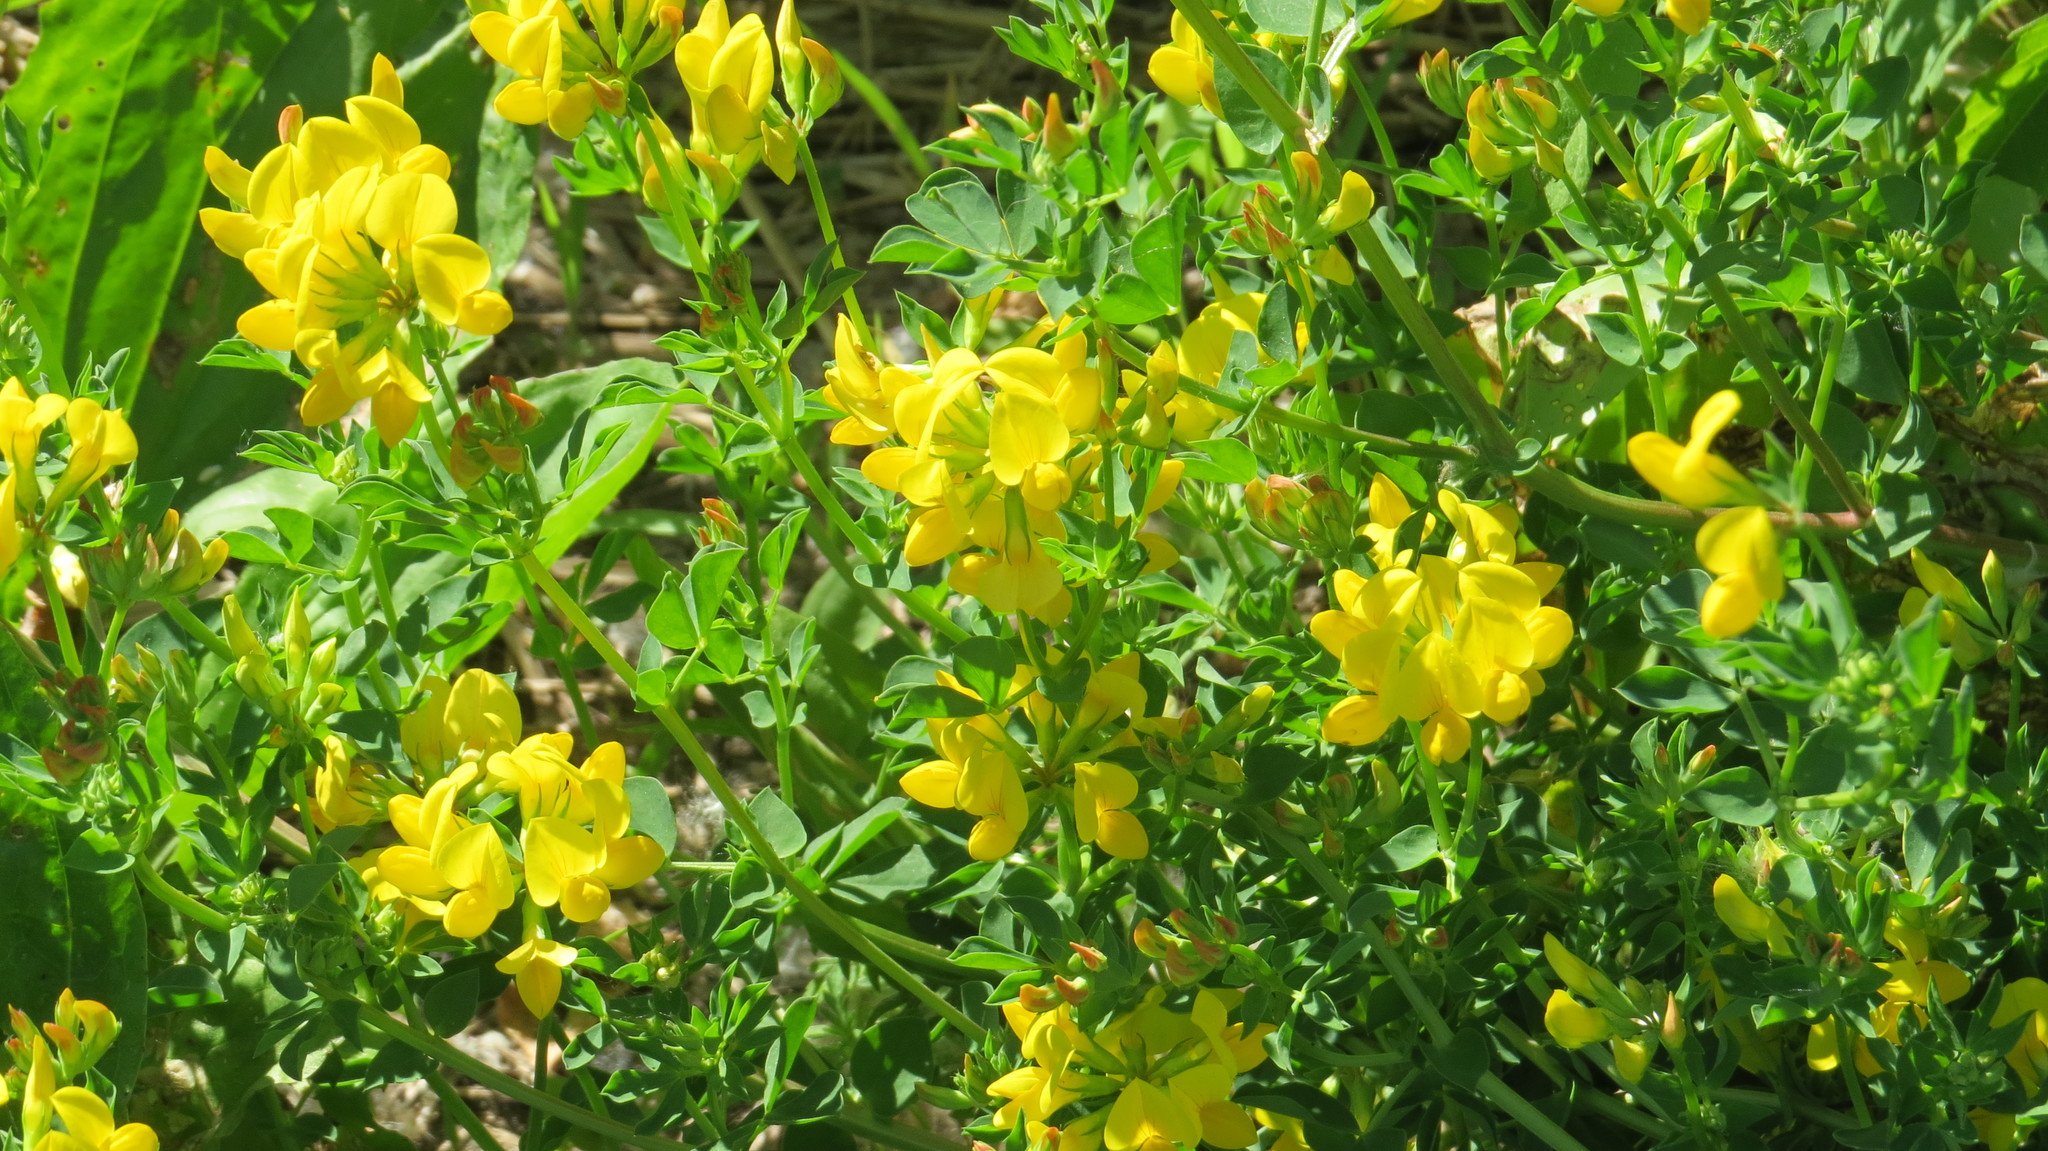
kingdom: Plantae
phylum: Tracheophyta
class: Magnoliopsida
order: Fabales
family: Fabaceae
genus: Lotus
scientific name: Lotus corniculatus
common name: Common bird's-foot-trefoil
